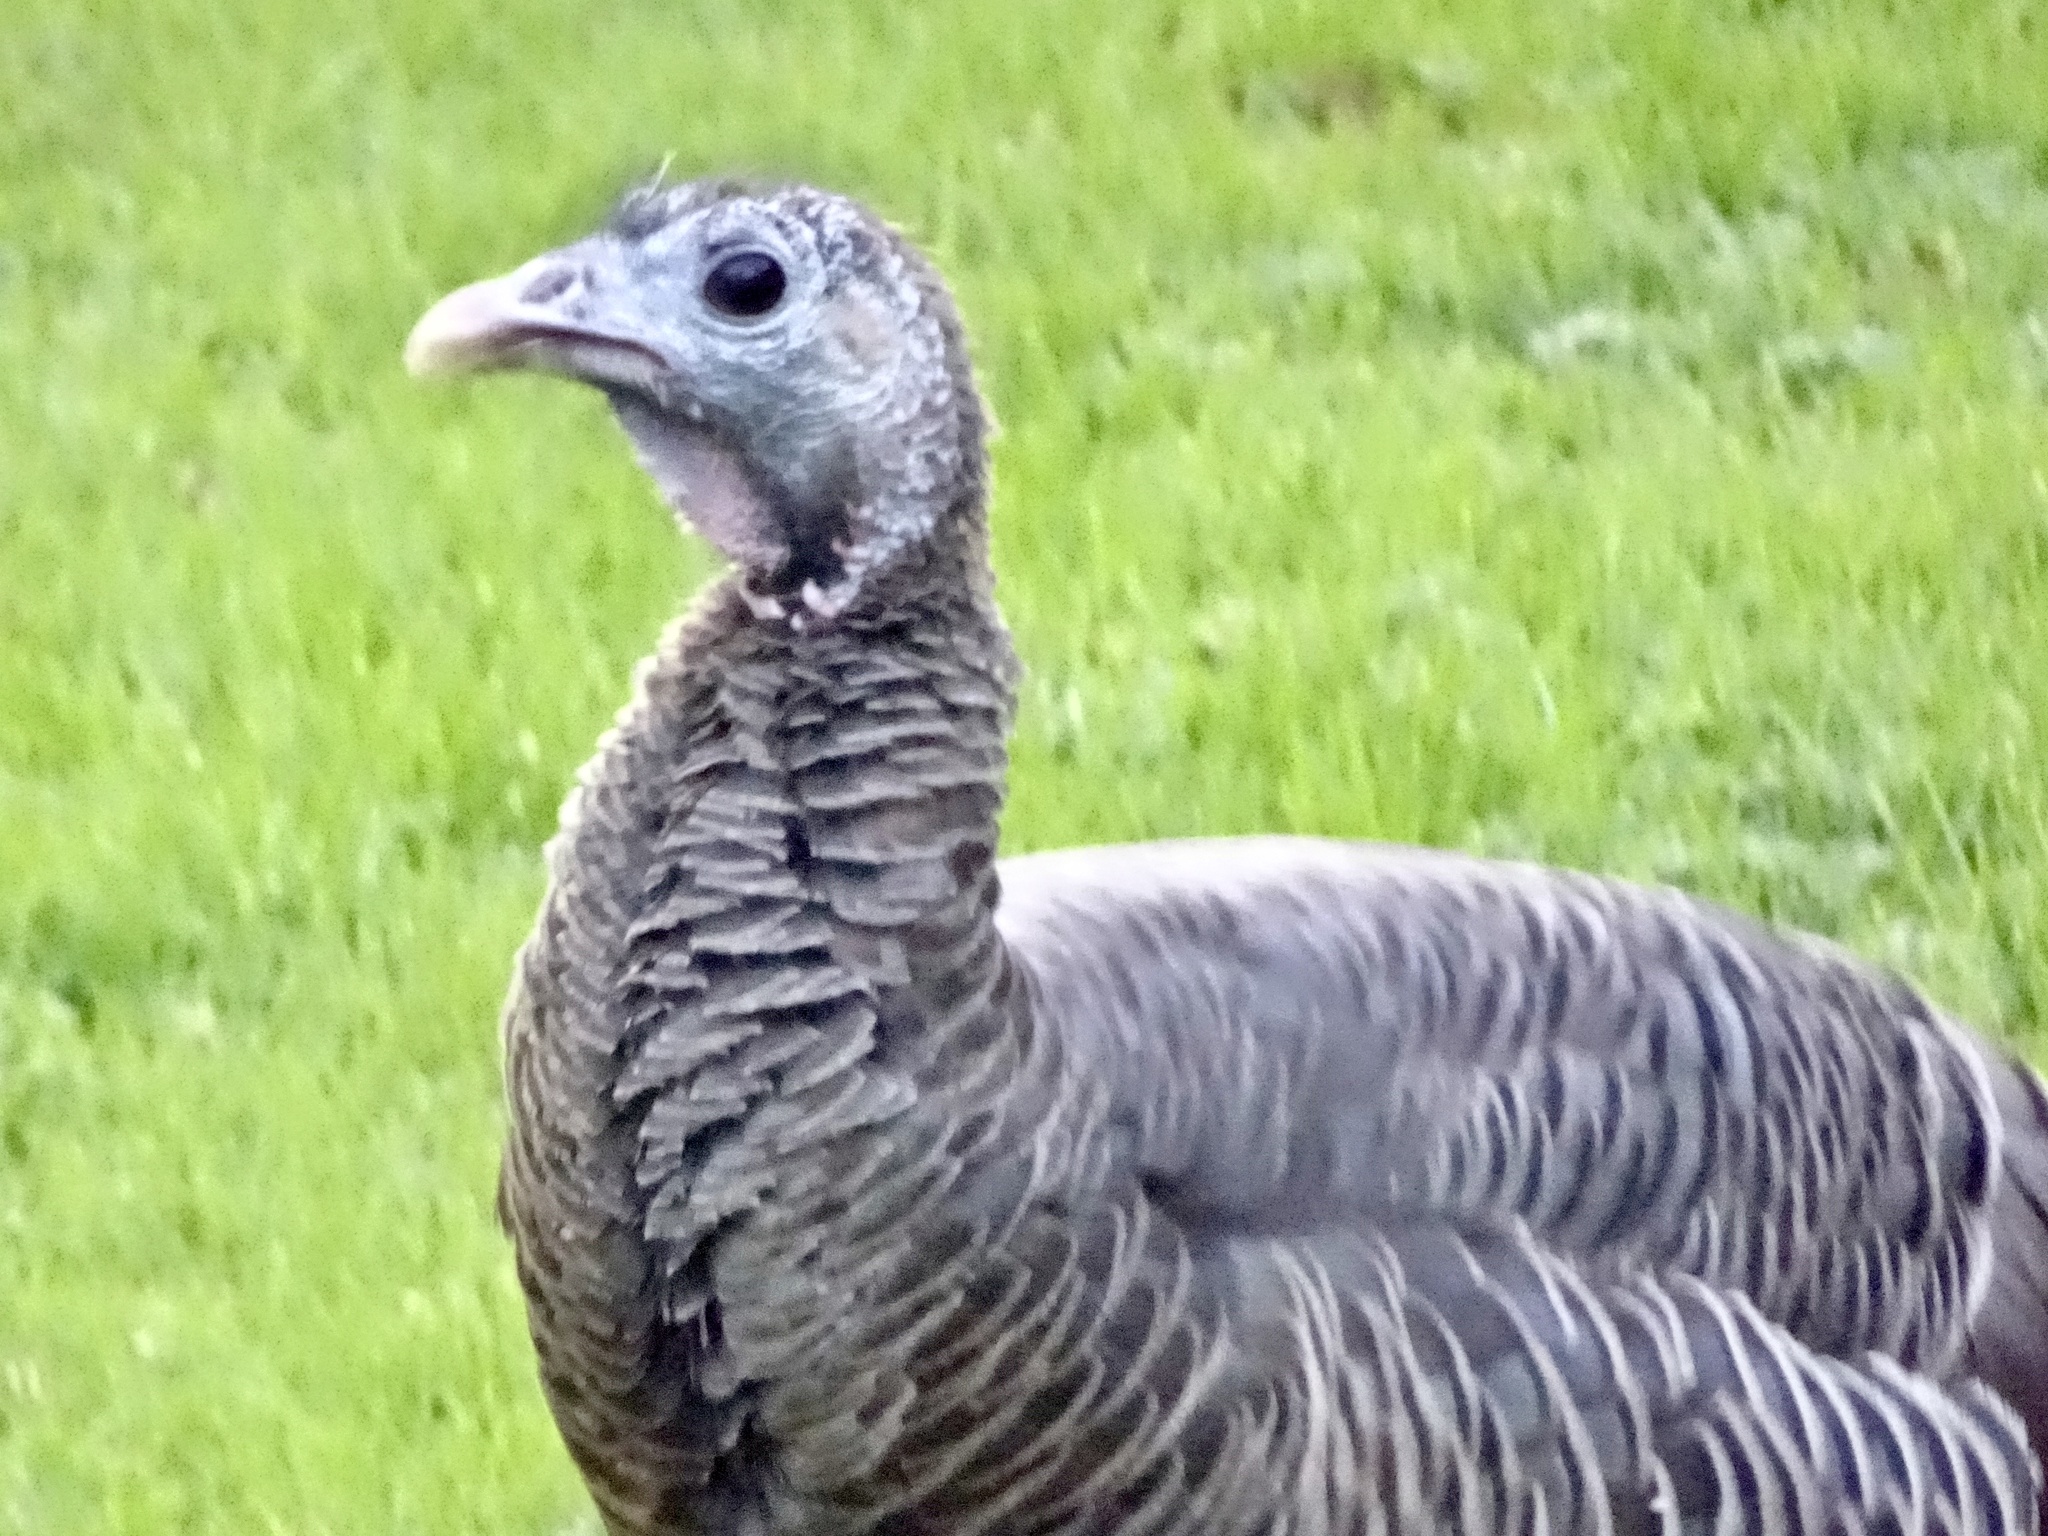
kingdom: Animalia
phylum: Chordata
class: Aves
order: Galliformes
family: Phasianidae
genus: Meleagris
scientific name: Meleagris gallopavo
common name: Wild turkey
